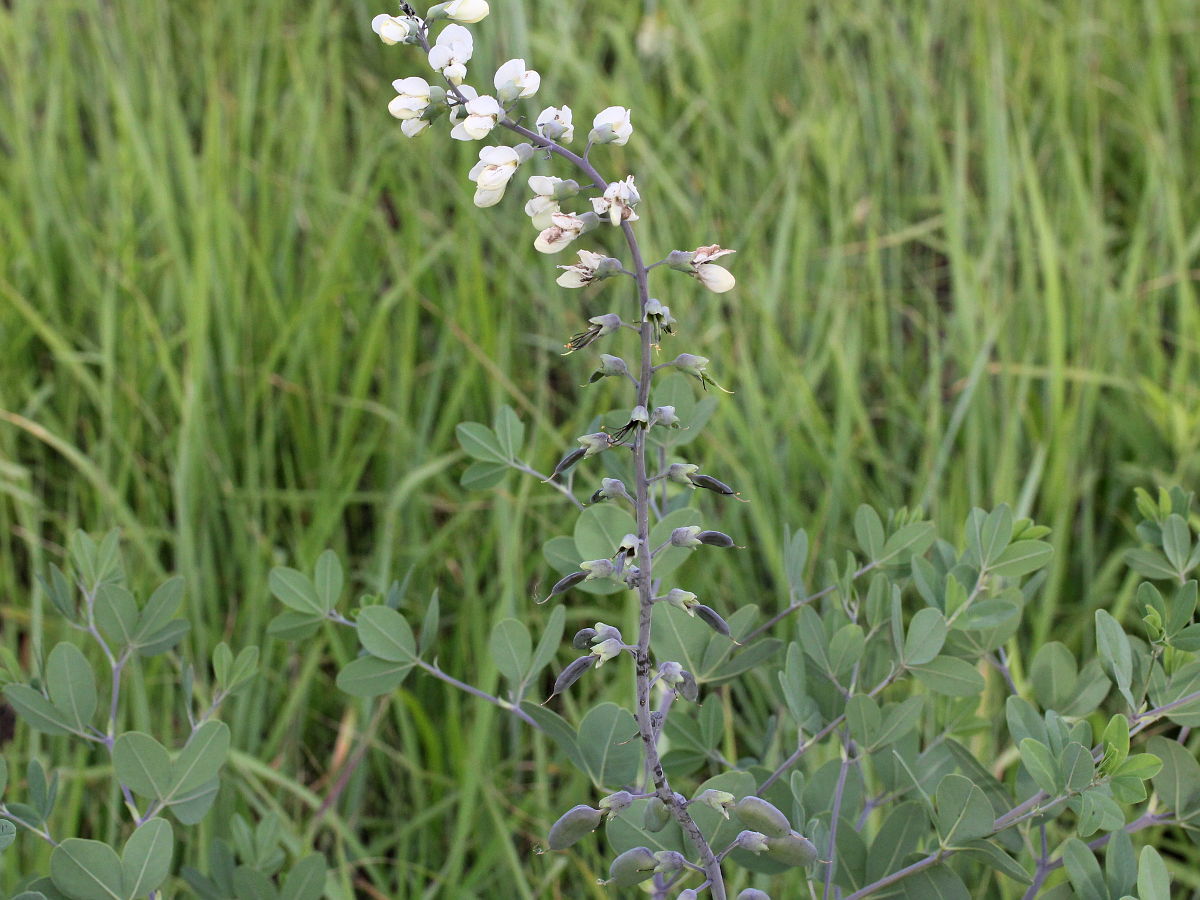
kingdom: Plantae
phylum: Tracheophyta
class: Magnoliopsida
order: Fabales
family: Fabaceae
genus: Baptisia
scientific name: Baptisia alba
